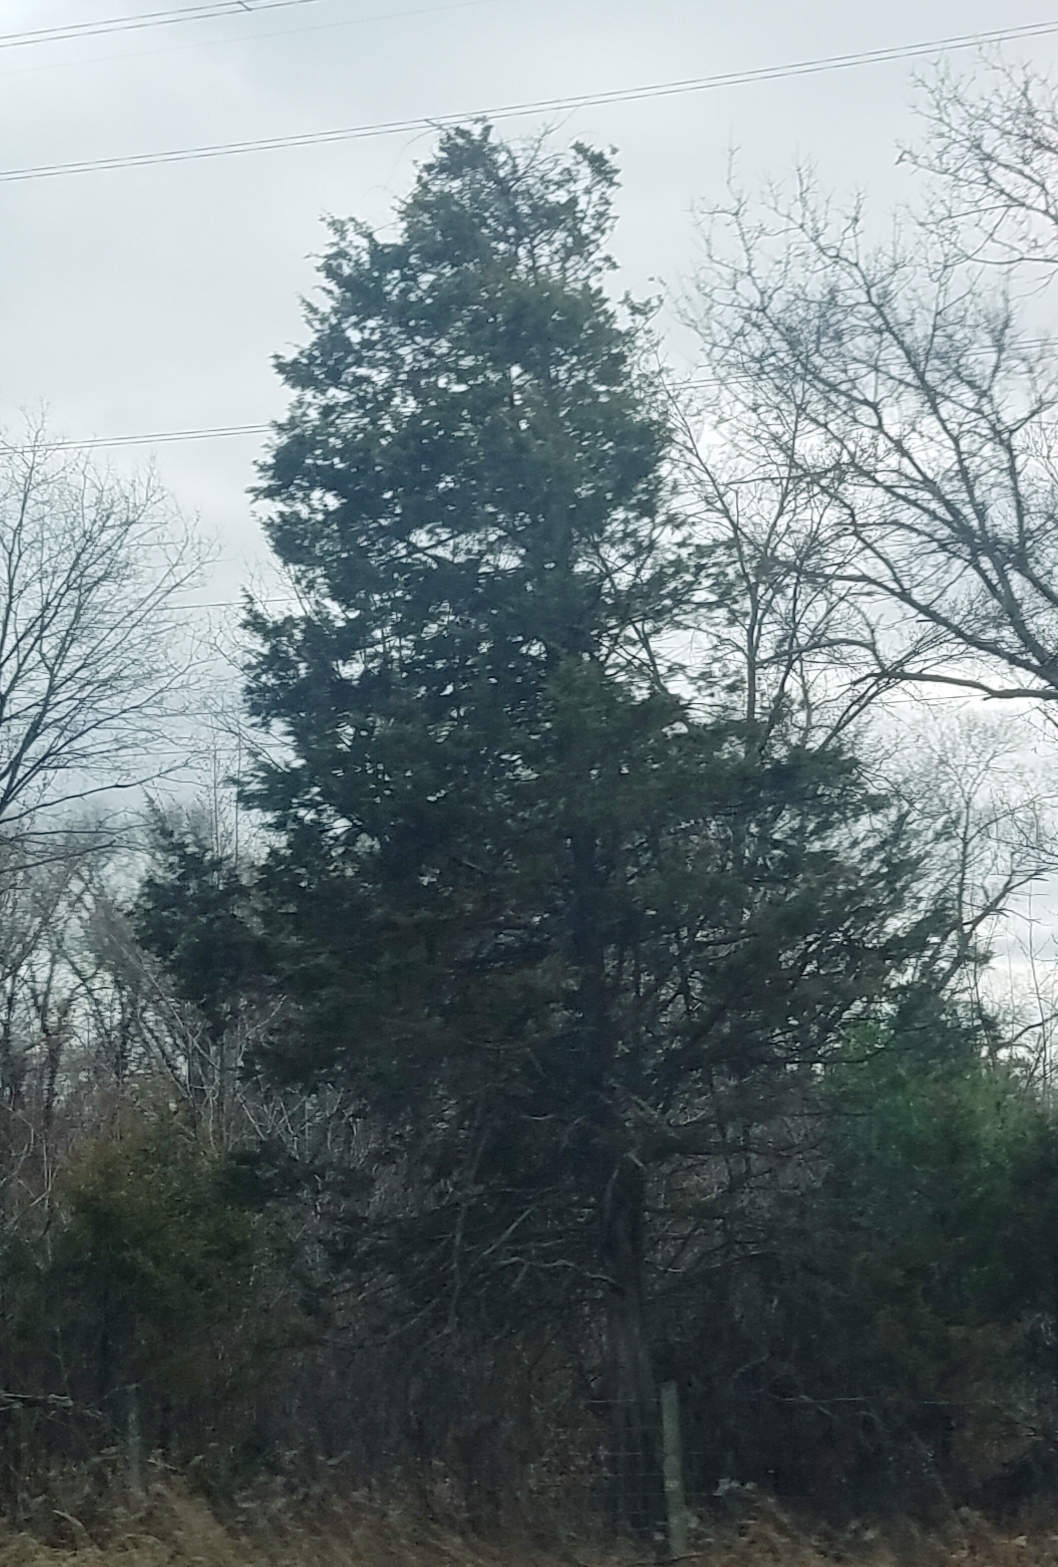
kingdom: Plantae
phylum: Tracheophyta
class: Pinopsida
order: Pinales
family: Cupressaceae
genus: Juniperus
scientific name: Juniperus virginiana
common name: Red juniper
